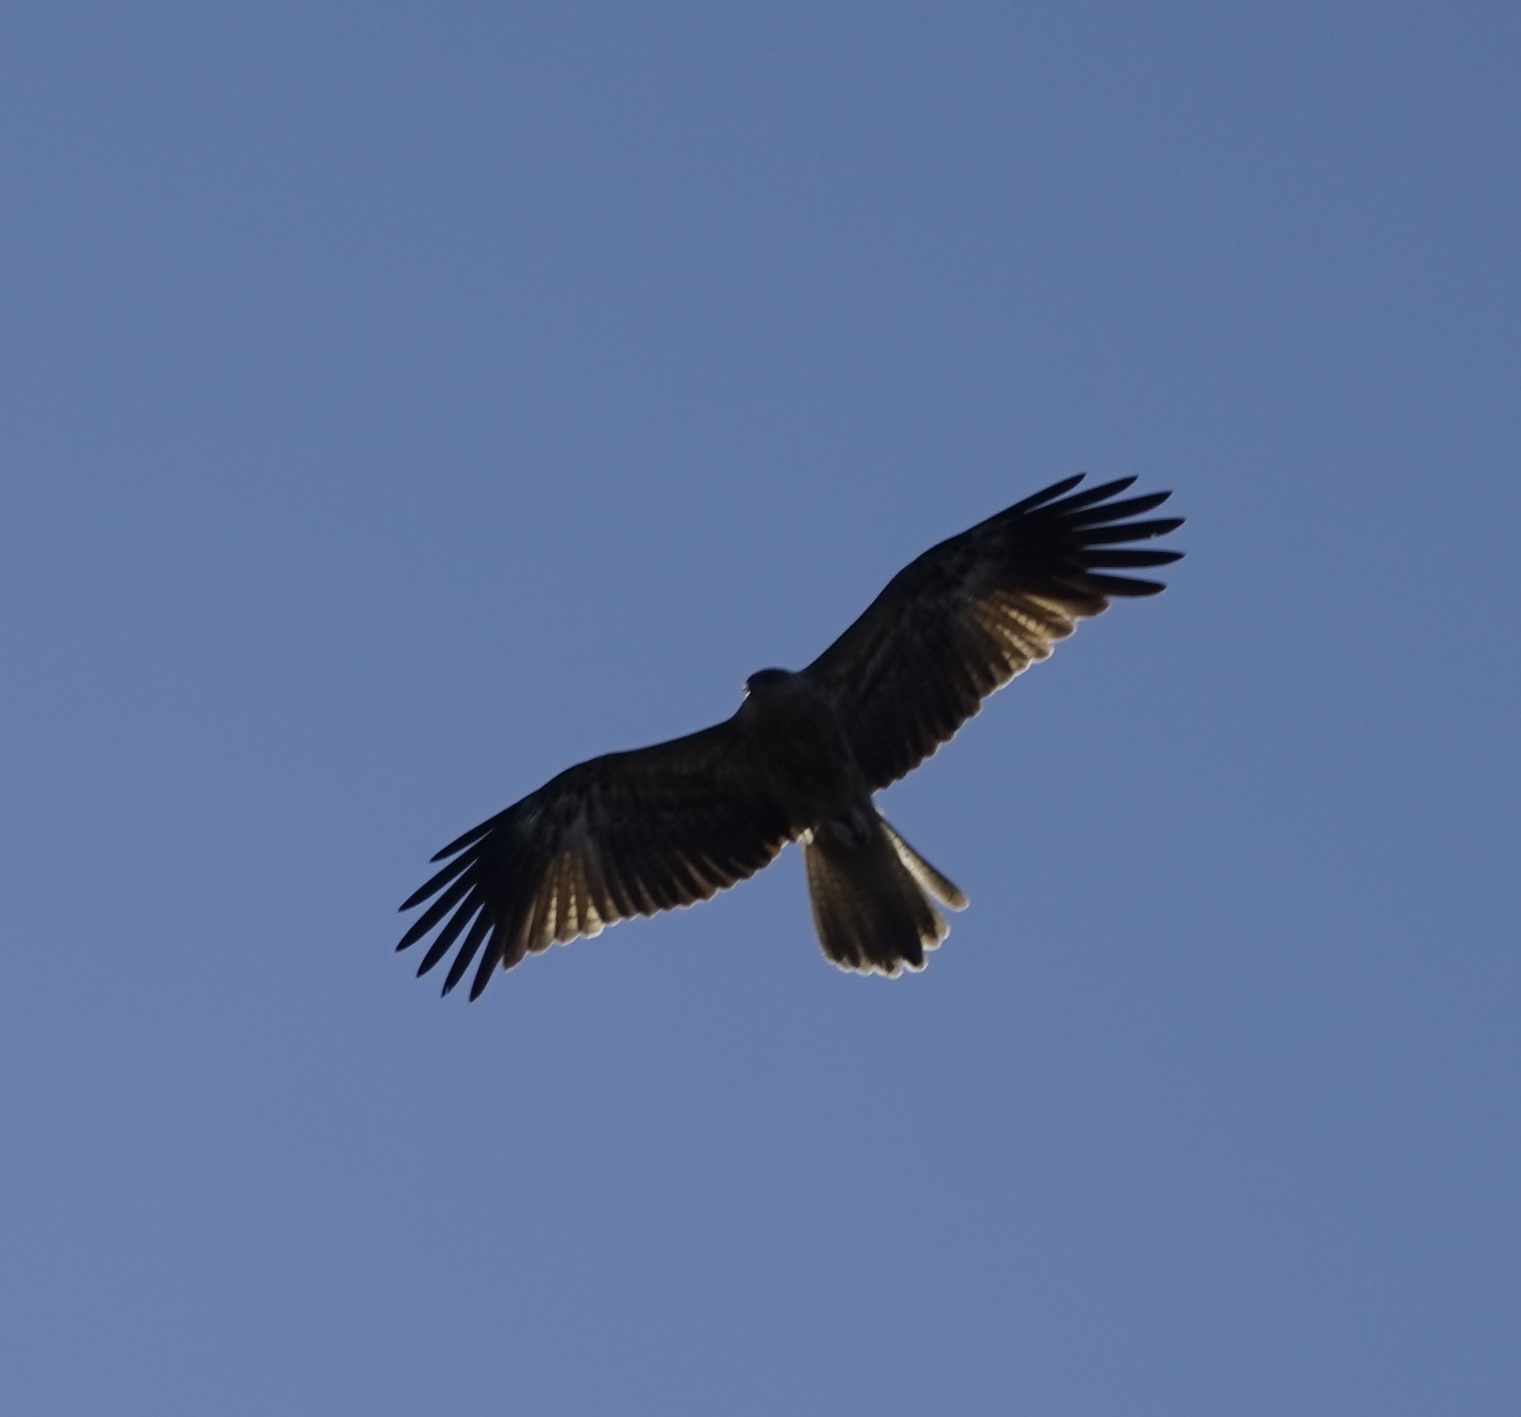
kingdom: Animalia
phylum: Chordata
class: Aves
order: Accipitriformes
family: Accipitridae
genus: Haliastur
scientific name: Haliastur sphenurus
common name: Whistling kite
